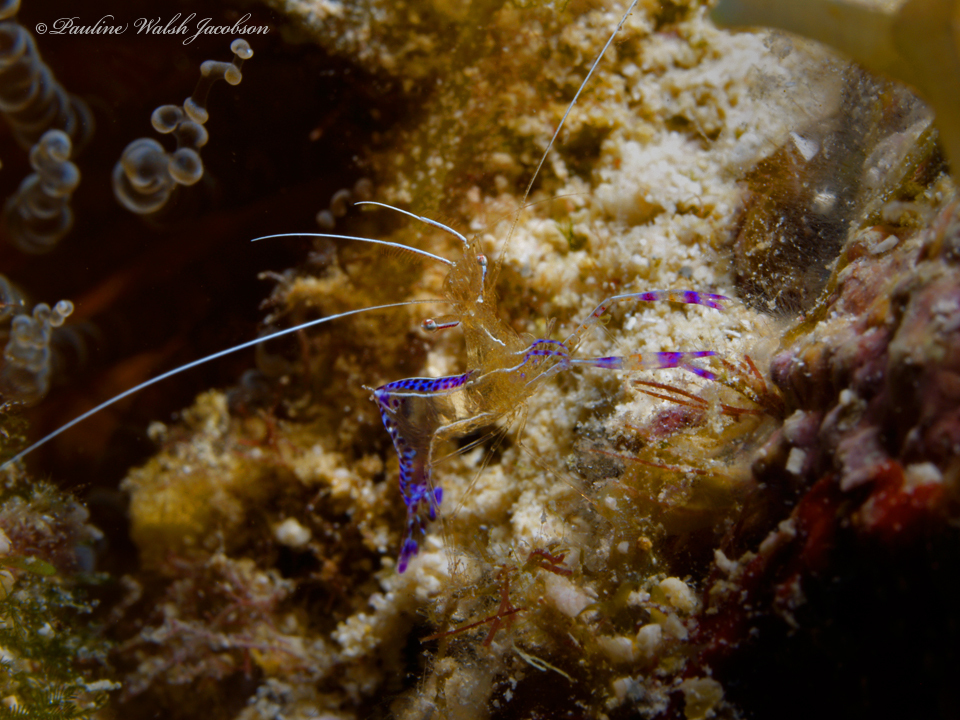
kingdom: Animalia
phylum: Arthropoda
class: Malacostraca
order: Decapoda
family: Palaemonidae
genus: Ancylomenes
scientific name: Ancylomenes pedersoni
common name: Pederson's cleaning shrimp
